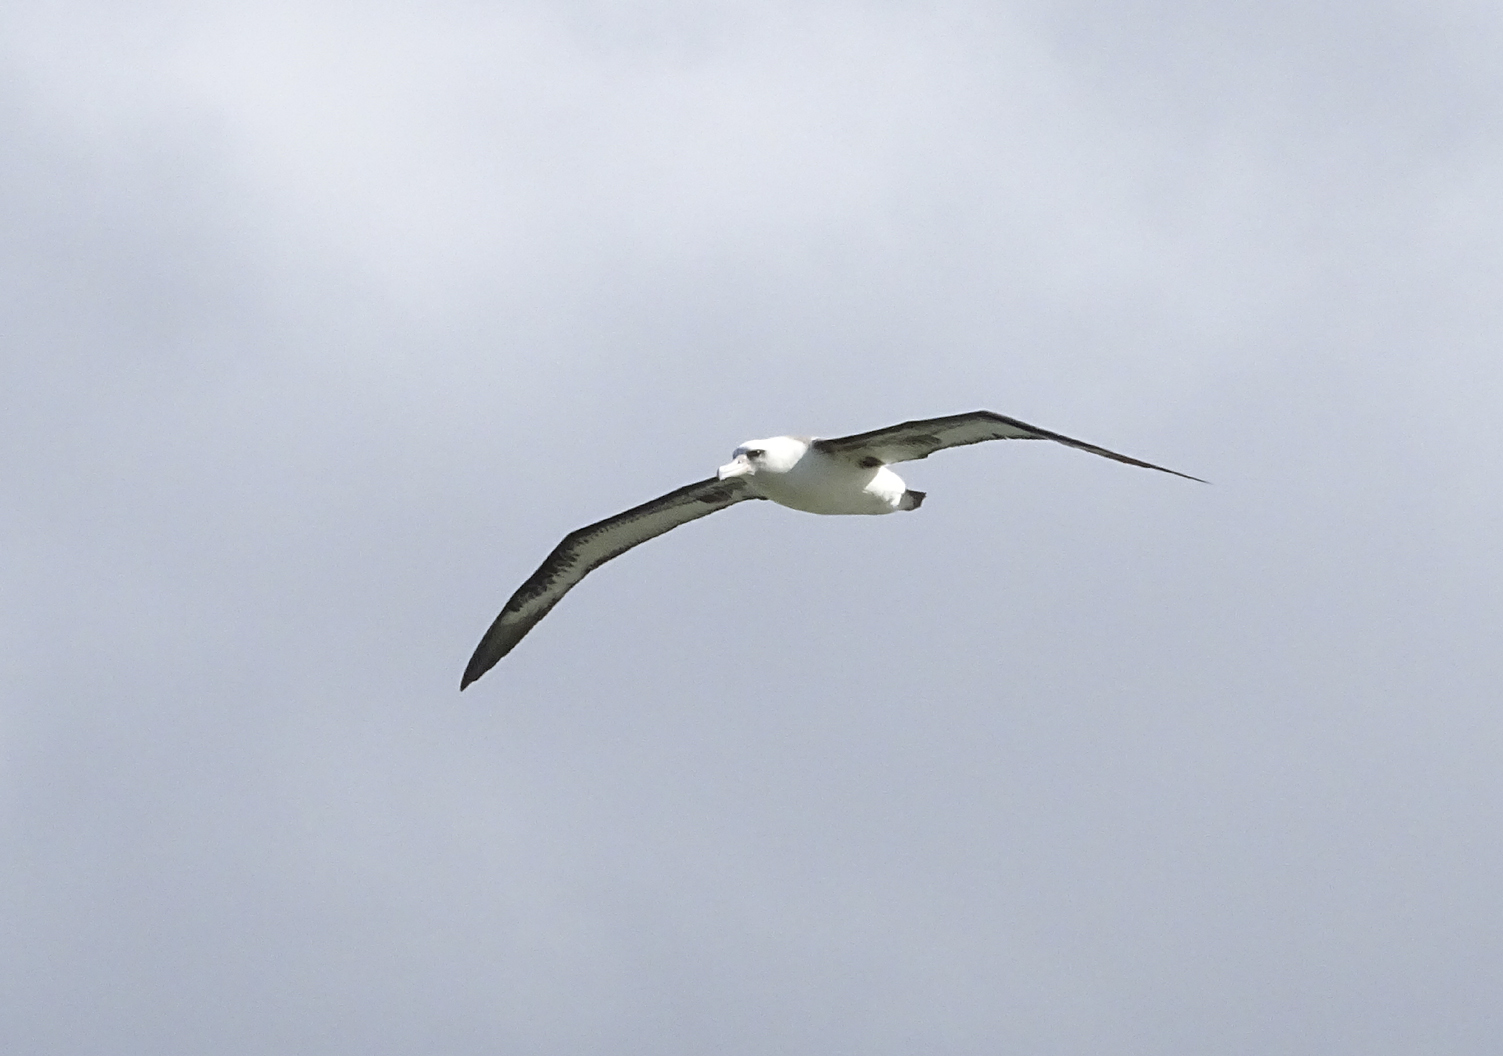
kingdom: Animalia
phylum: Chordata
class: Aves
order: Procellariiformes
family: Diomedeidae
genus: Phoebastria
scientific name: Phoebastria immutabilis
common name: Laysan albatross
